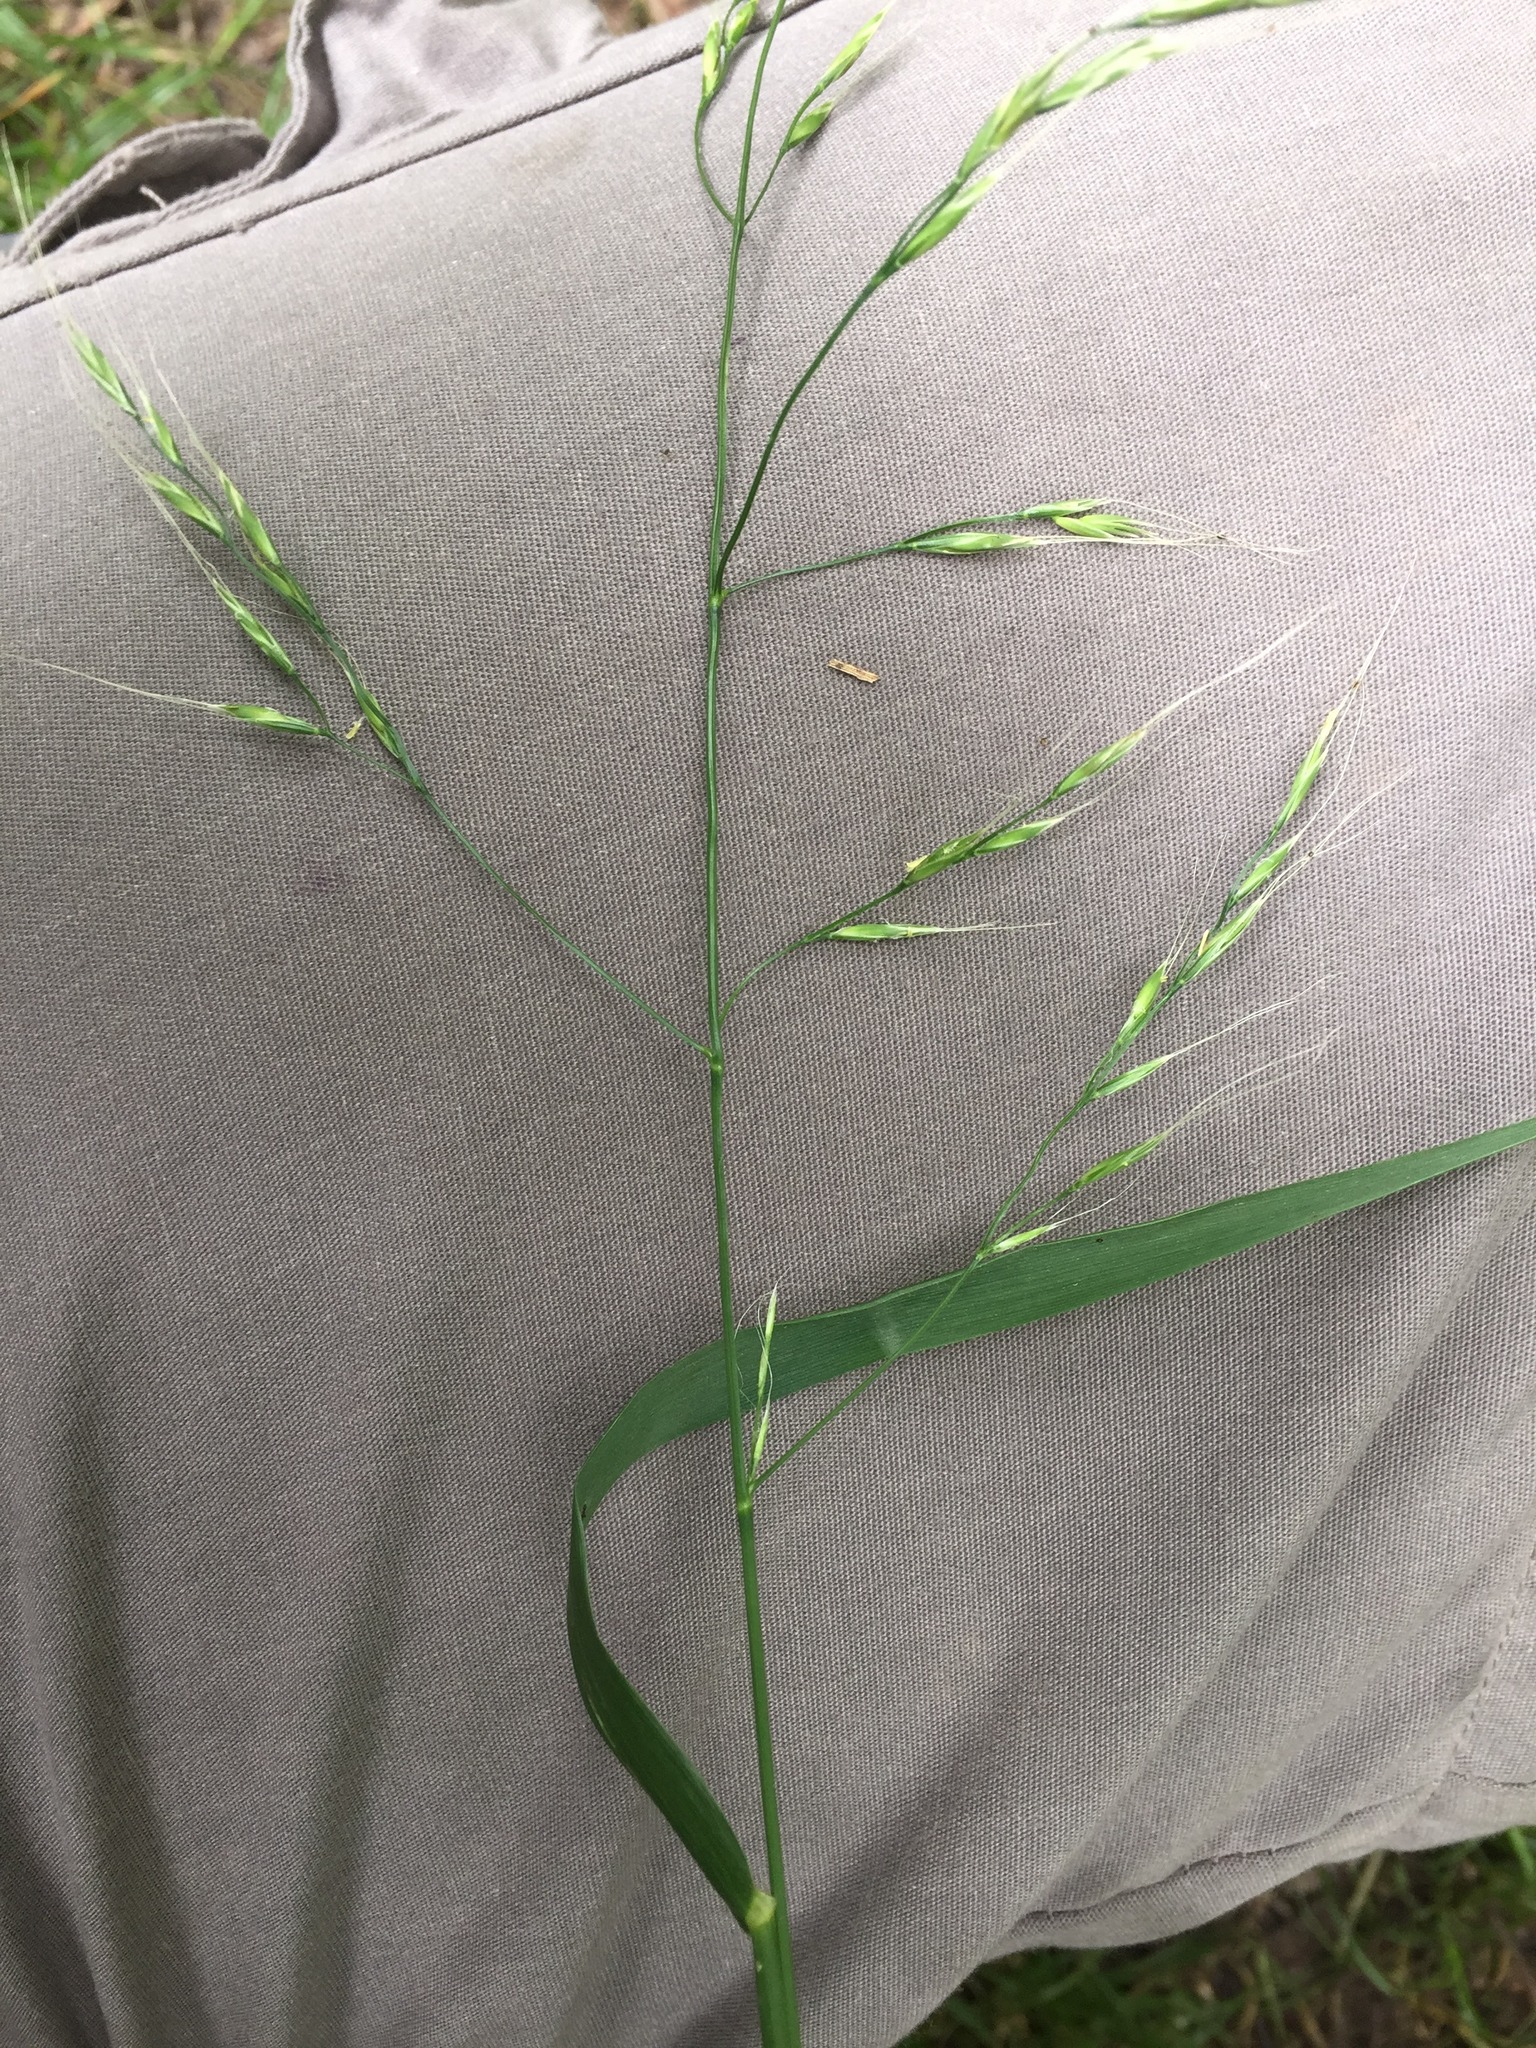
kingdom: Plantae
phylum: Tracheophyta
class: Liliopsida
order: Poales
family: Poaceae
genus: Lolium
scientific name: Lolium giganteum
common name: Giant fescue
